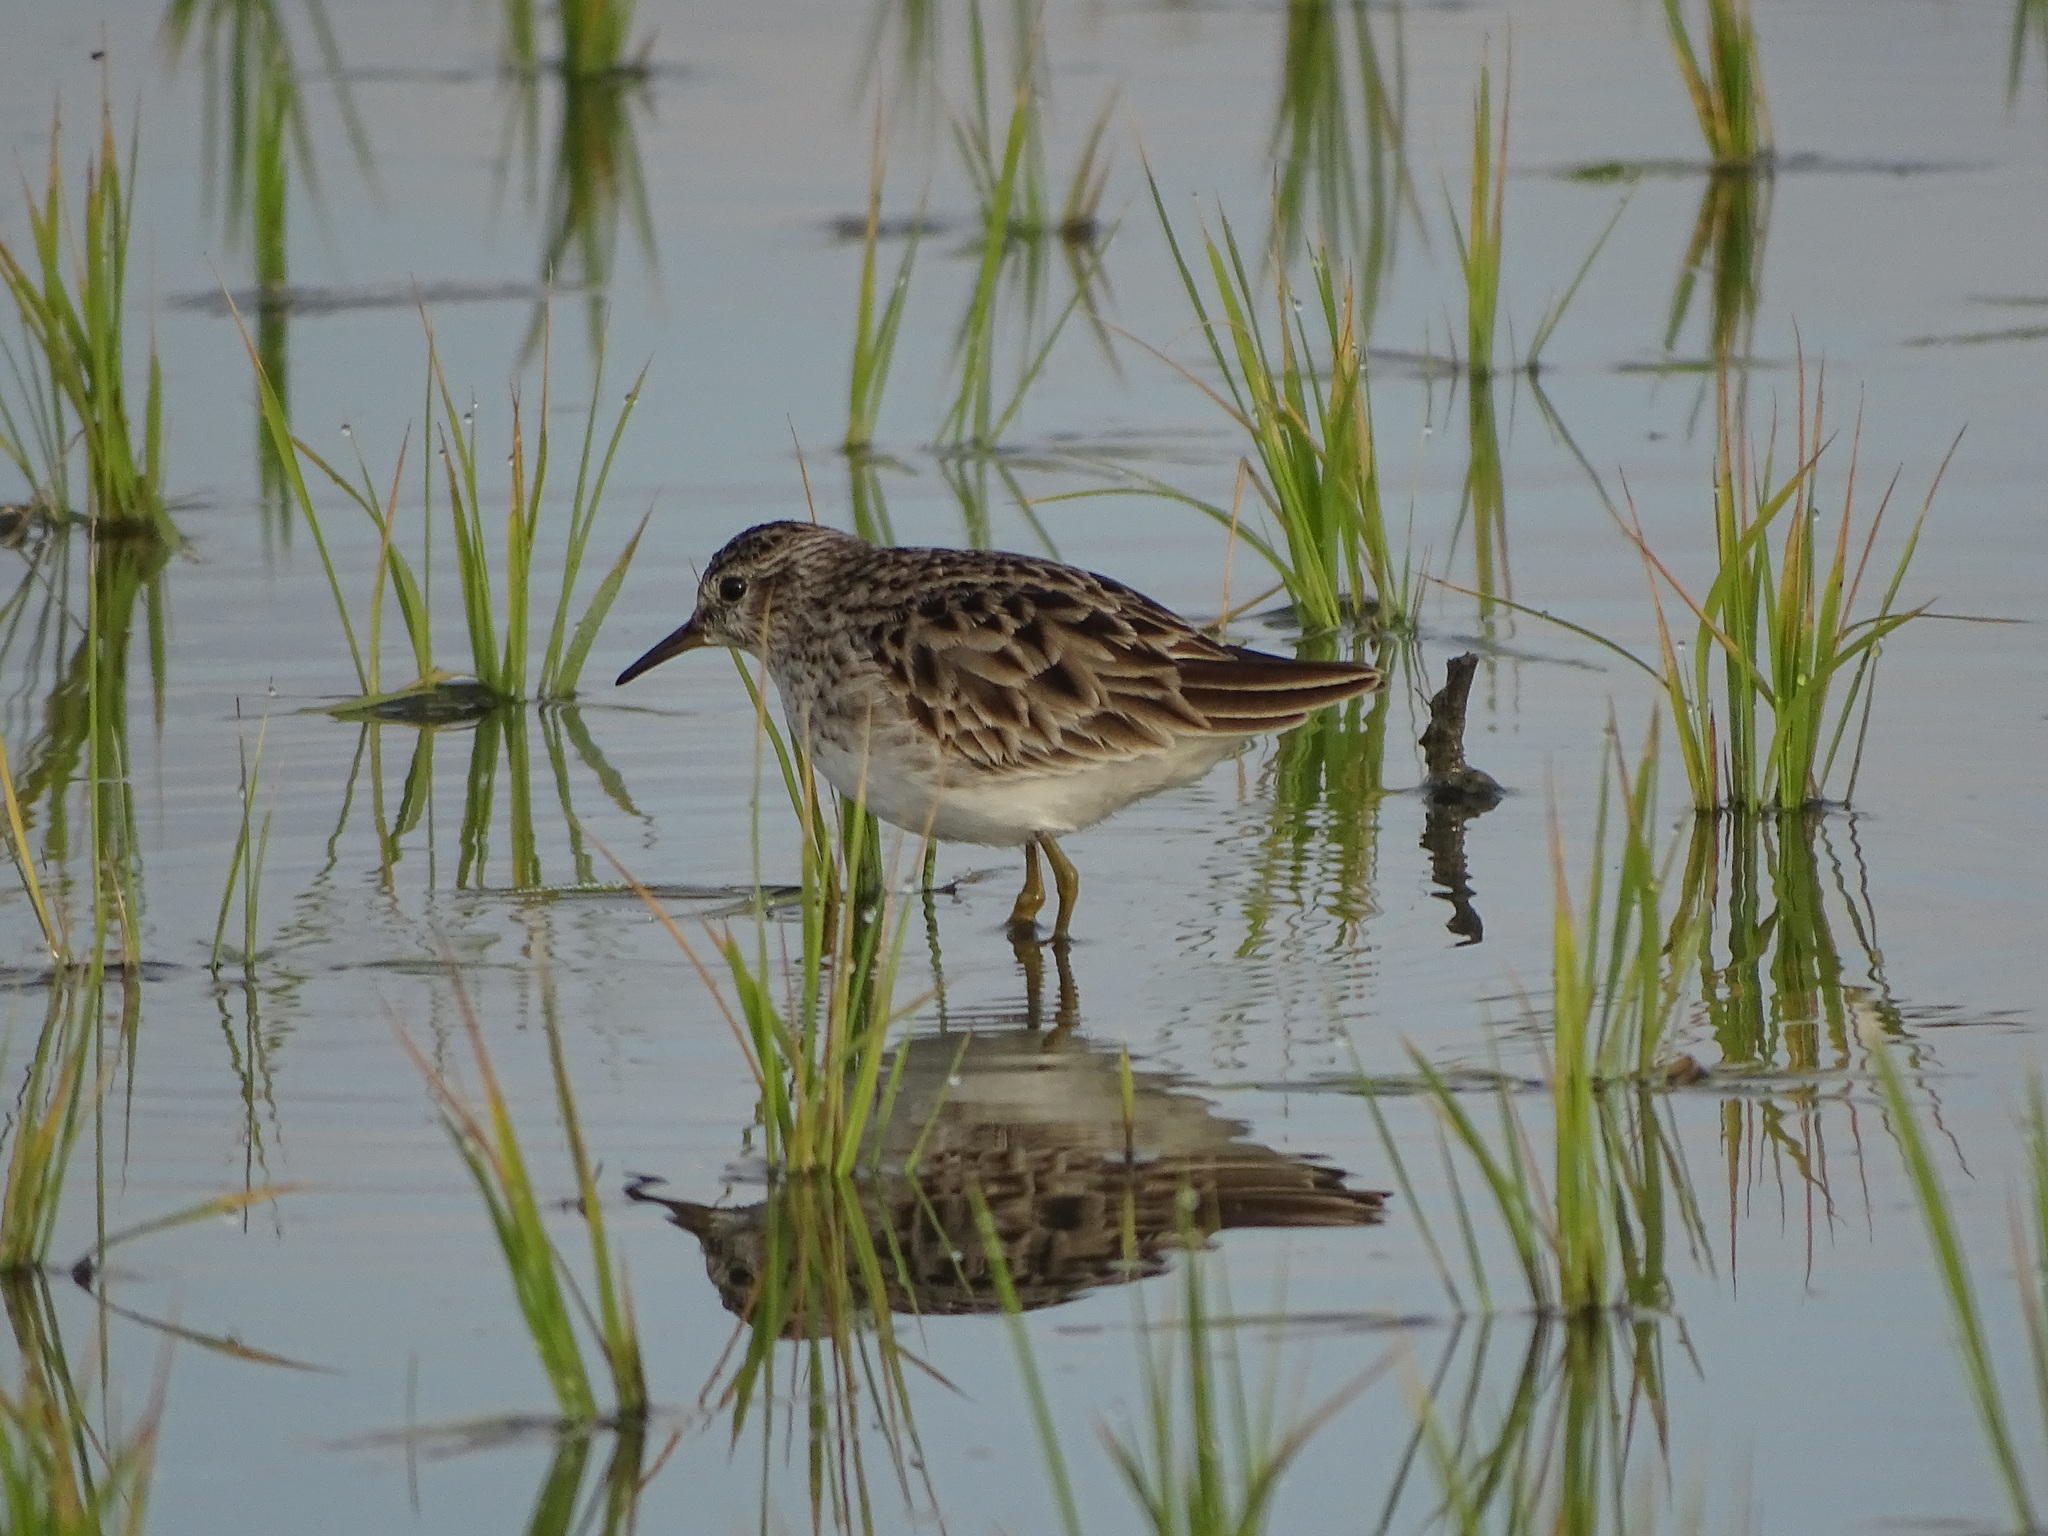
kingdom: Animalia
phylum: Chordata
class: Aves
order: Charadriiformes
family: Scolopacidae
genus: Calidris
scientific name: Calidris subminuta
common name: Long-toed stint
